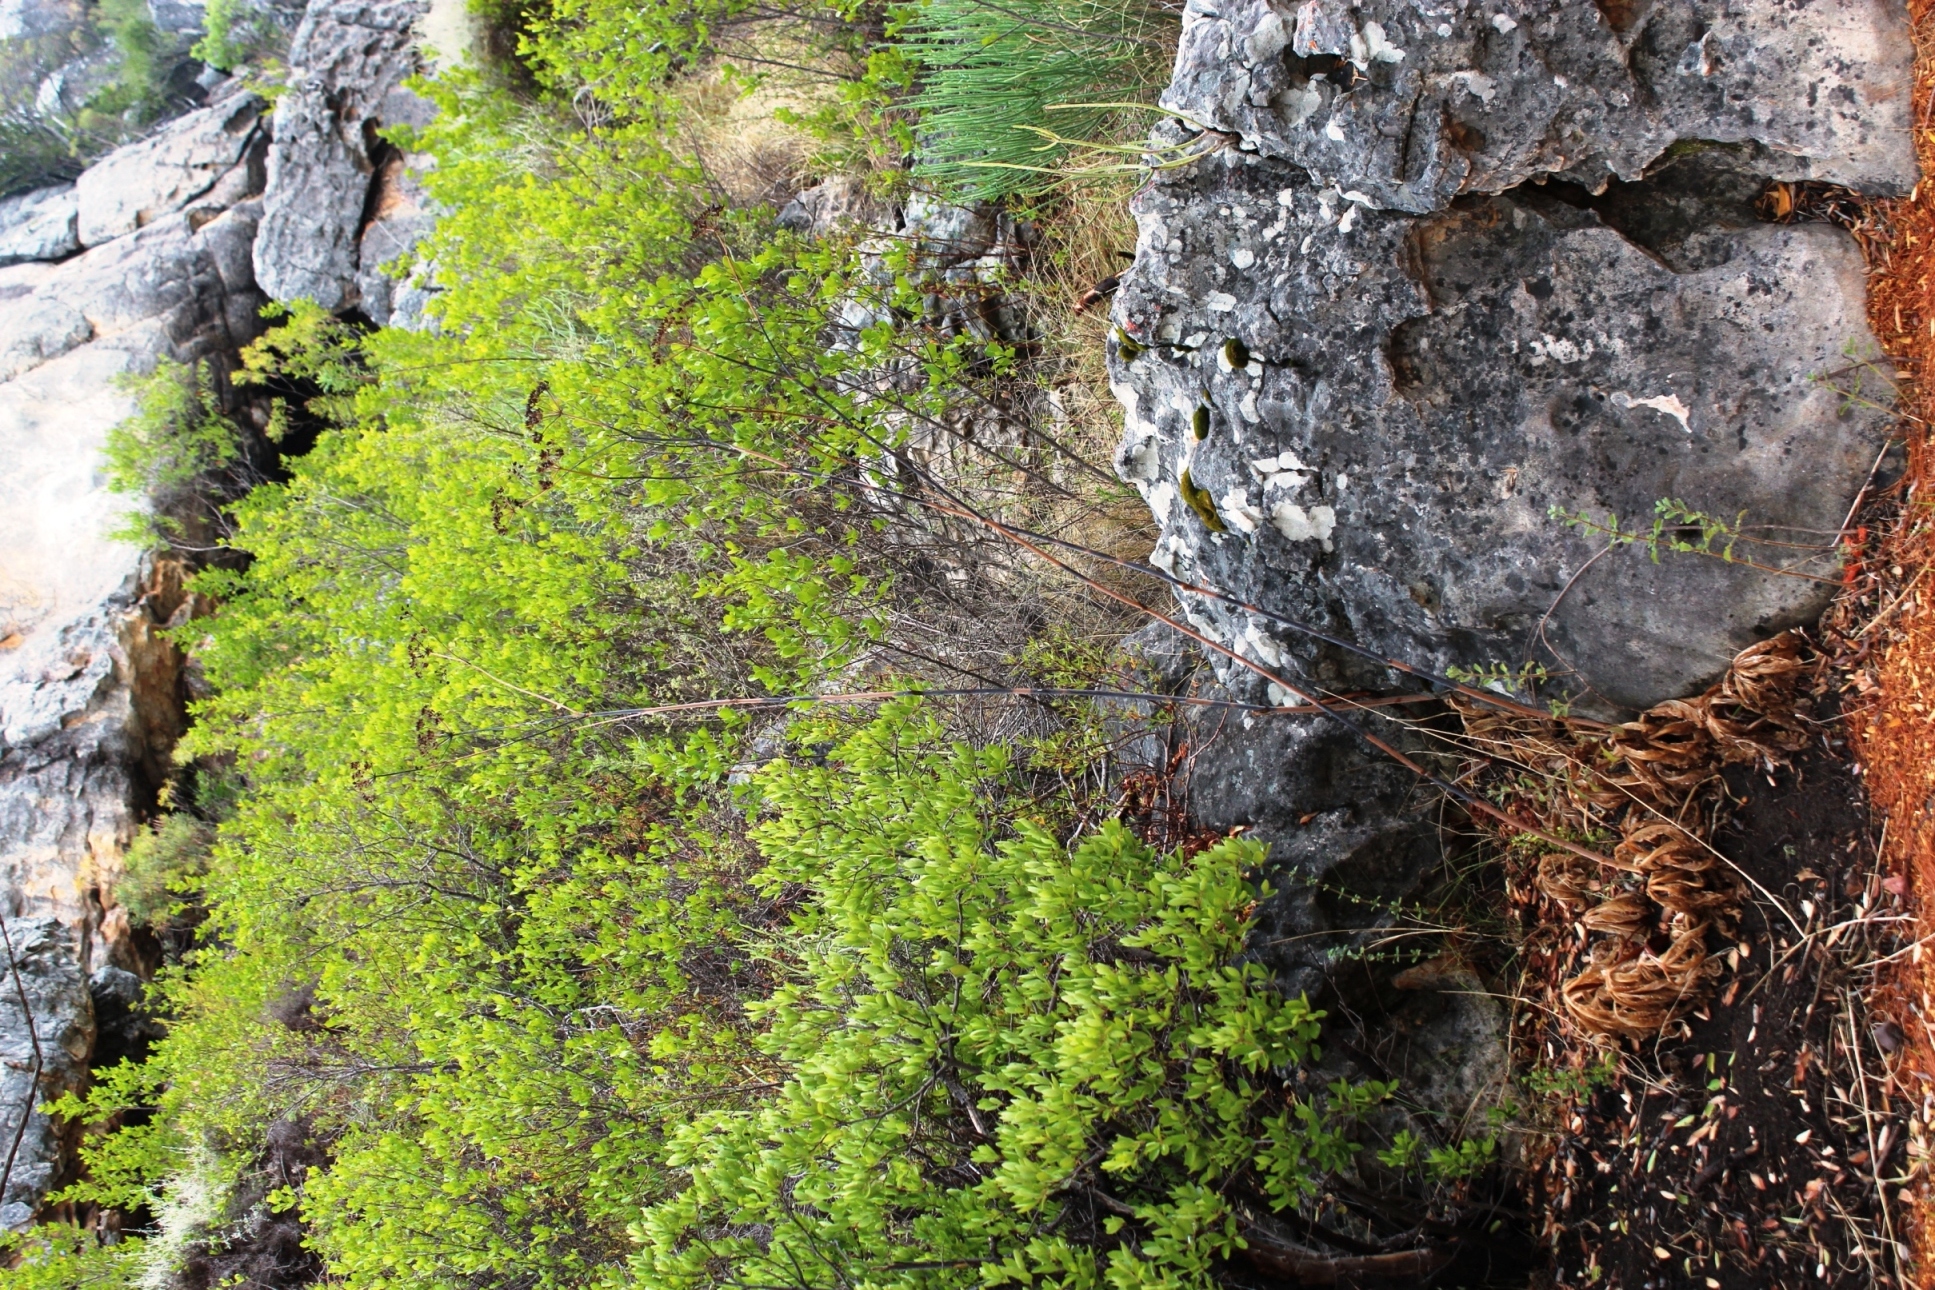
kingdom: Plantae
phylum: Tracheophyta
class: Magnoliopsida
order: Sapindales
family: Anacardiaceae
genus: Searsia
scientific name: Searsia lucida
